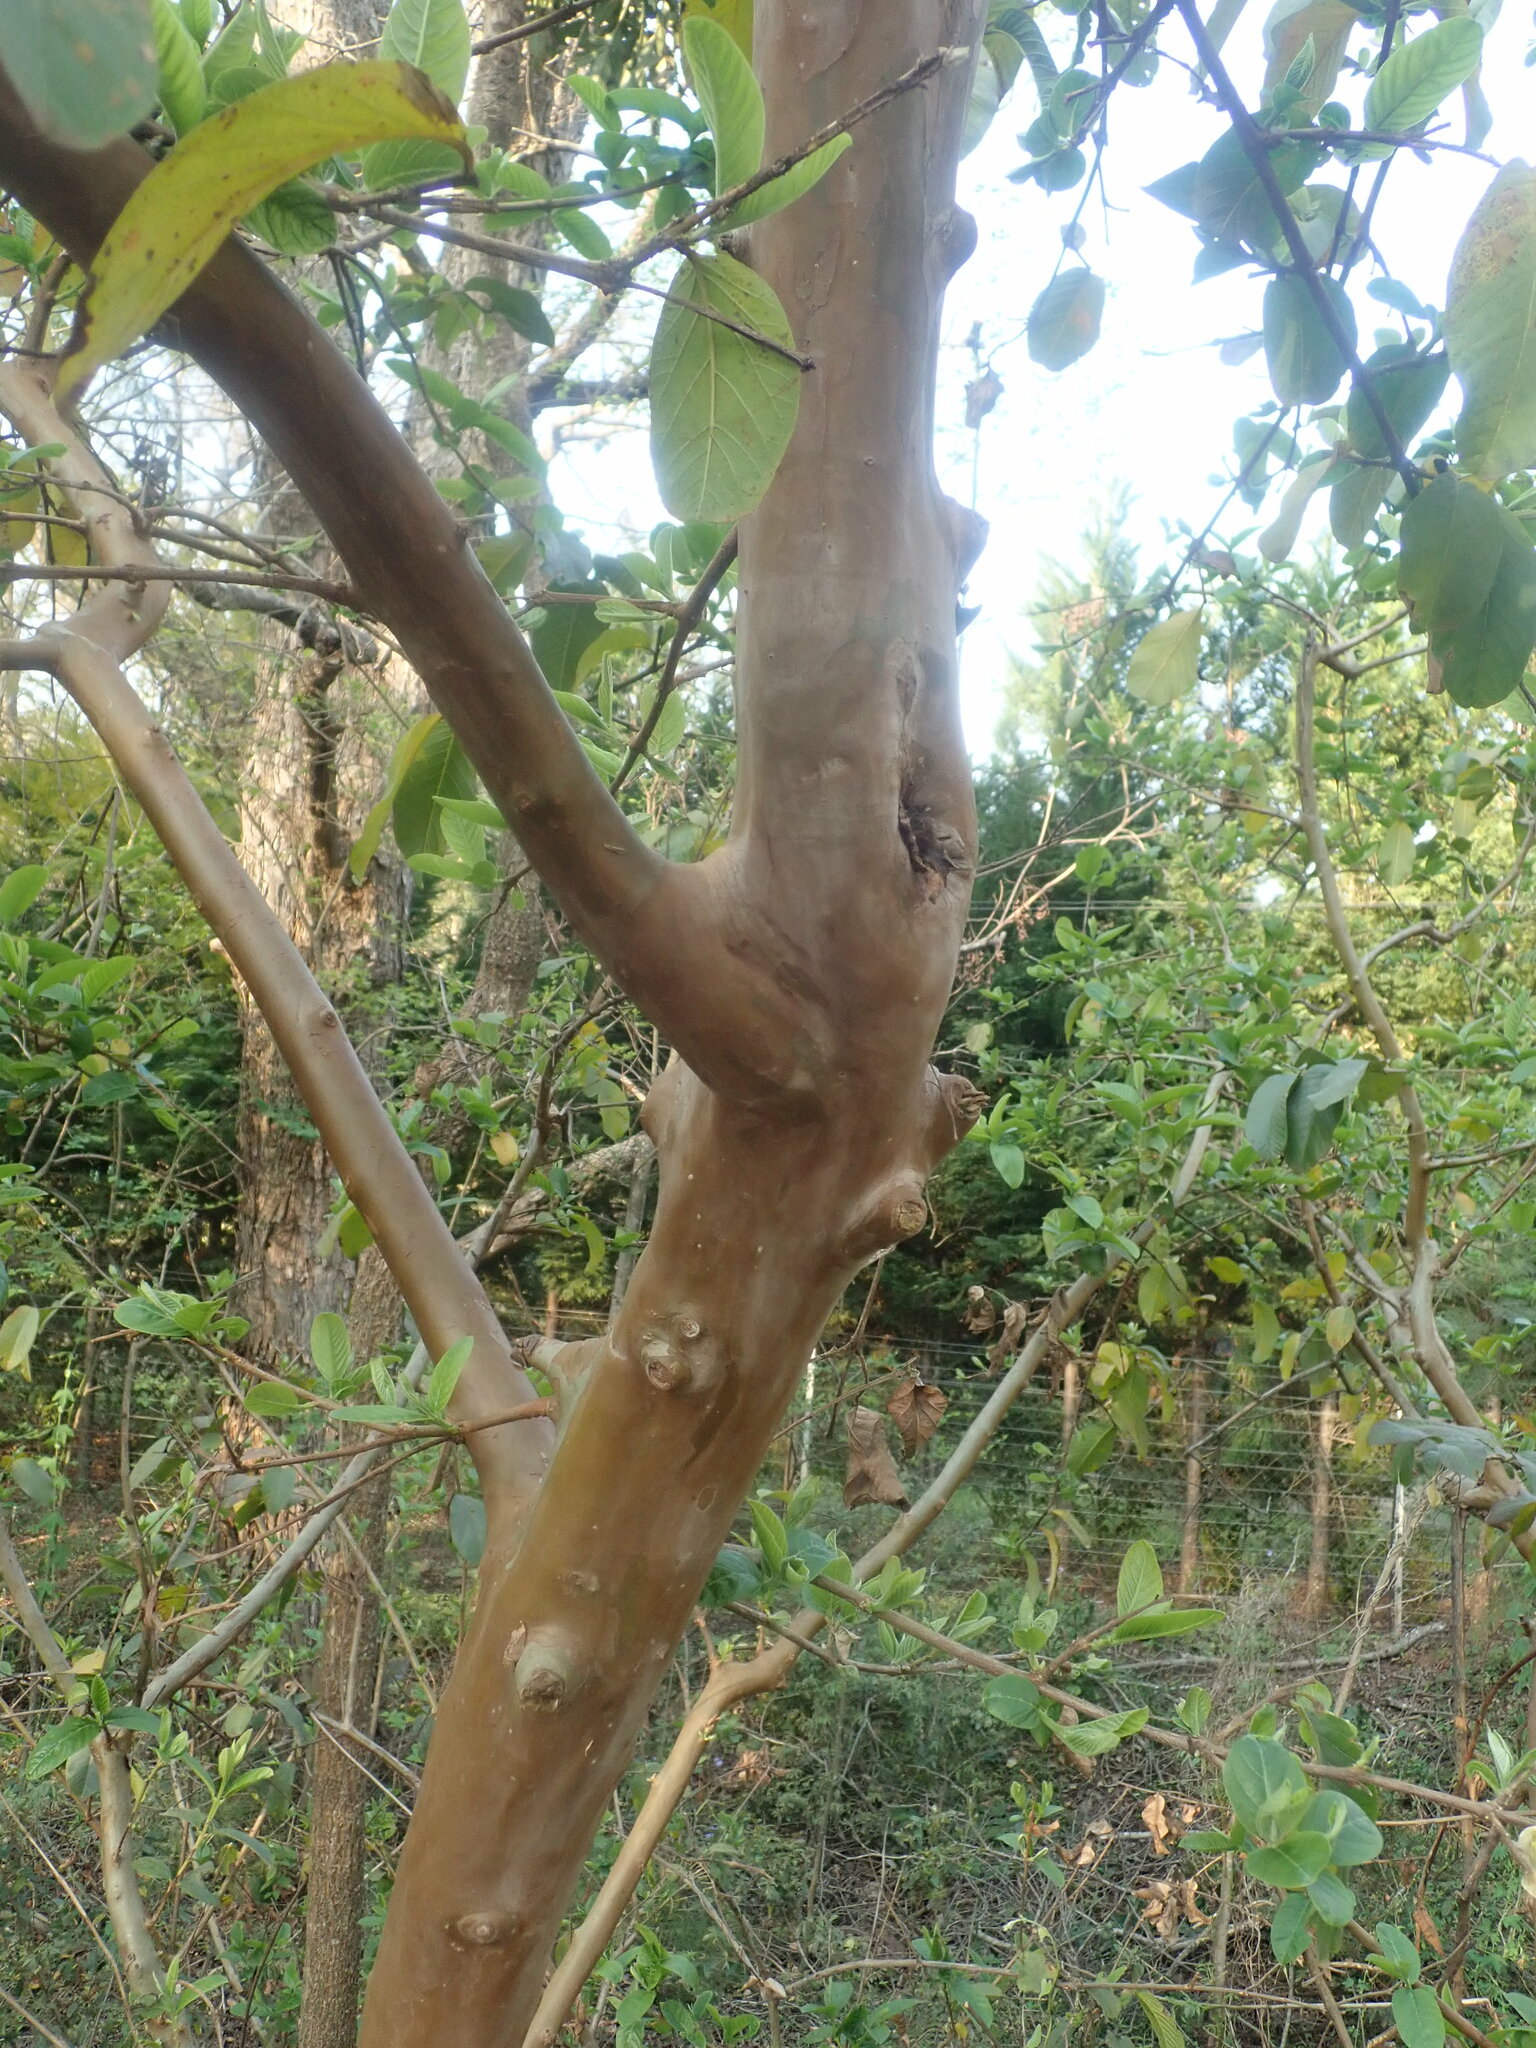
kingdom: Plantae
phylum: Tracheophyta
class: Magnoliopsida
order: Myrtales
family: Myrtaceae
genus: Psidium
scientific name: Psidium guajava
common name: Guava
